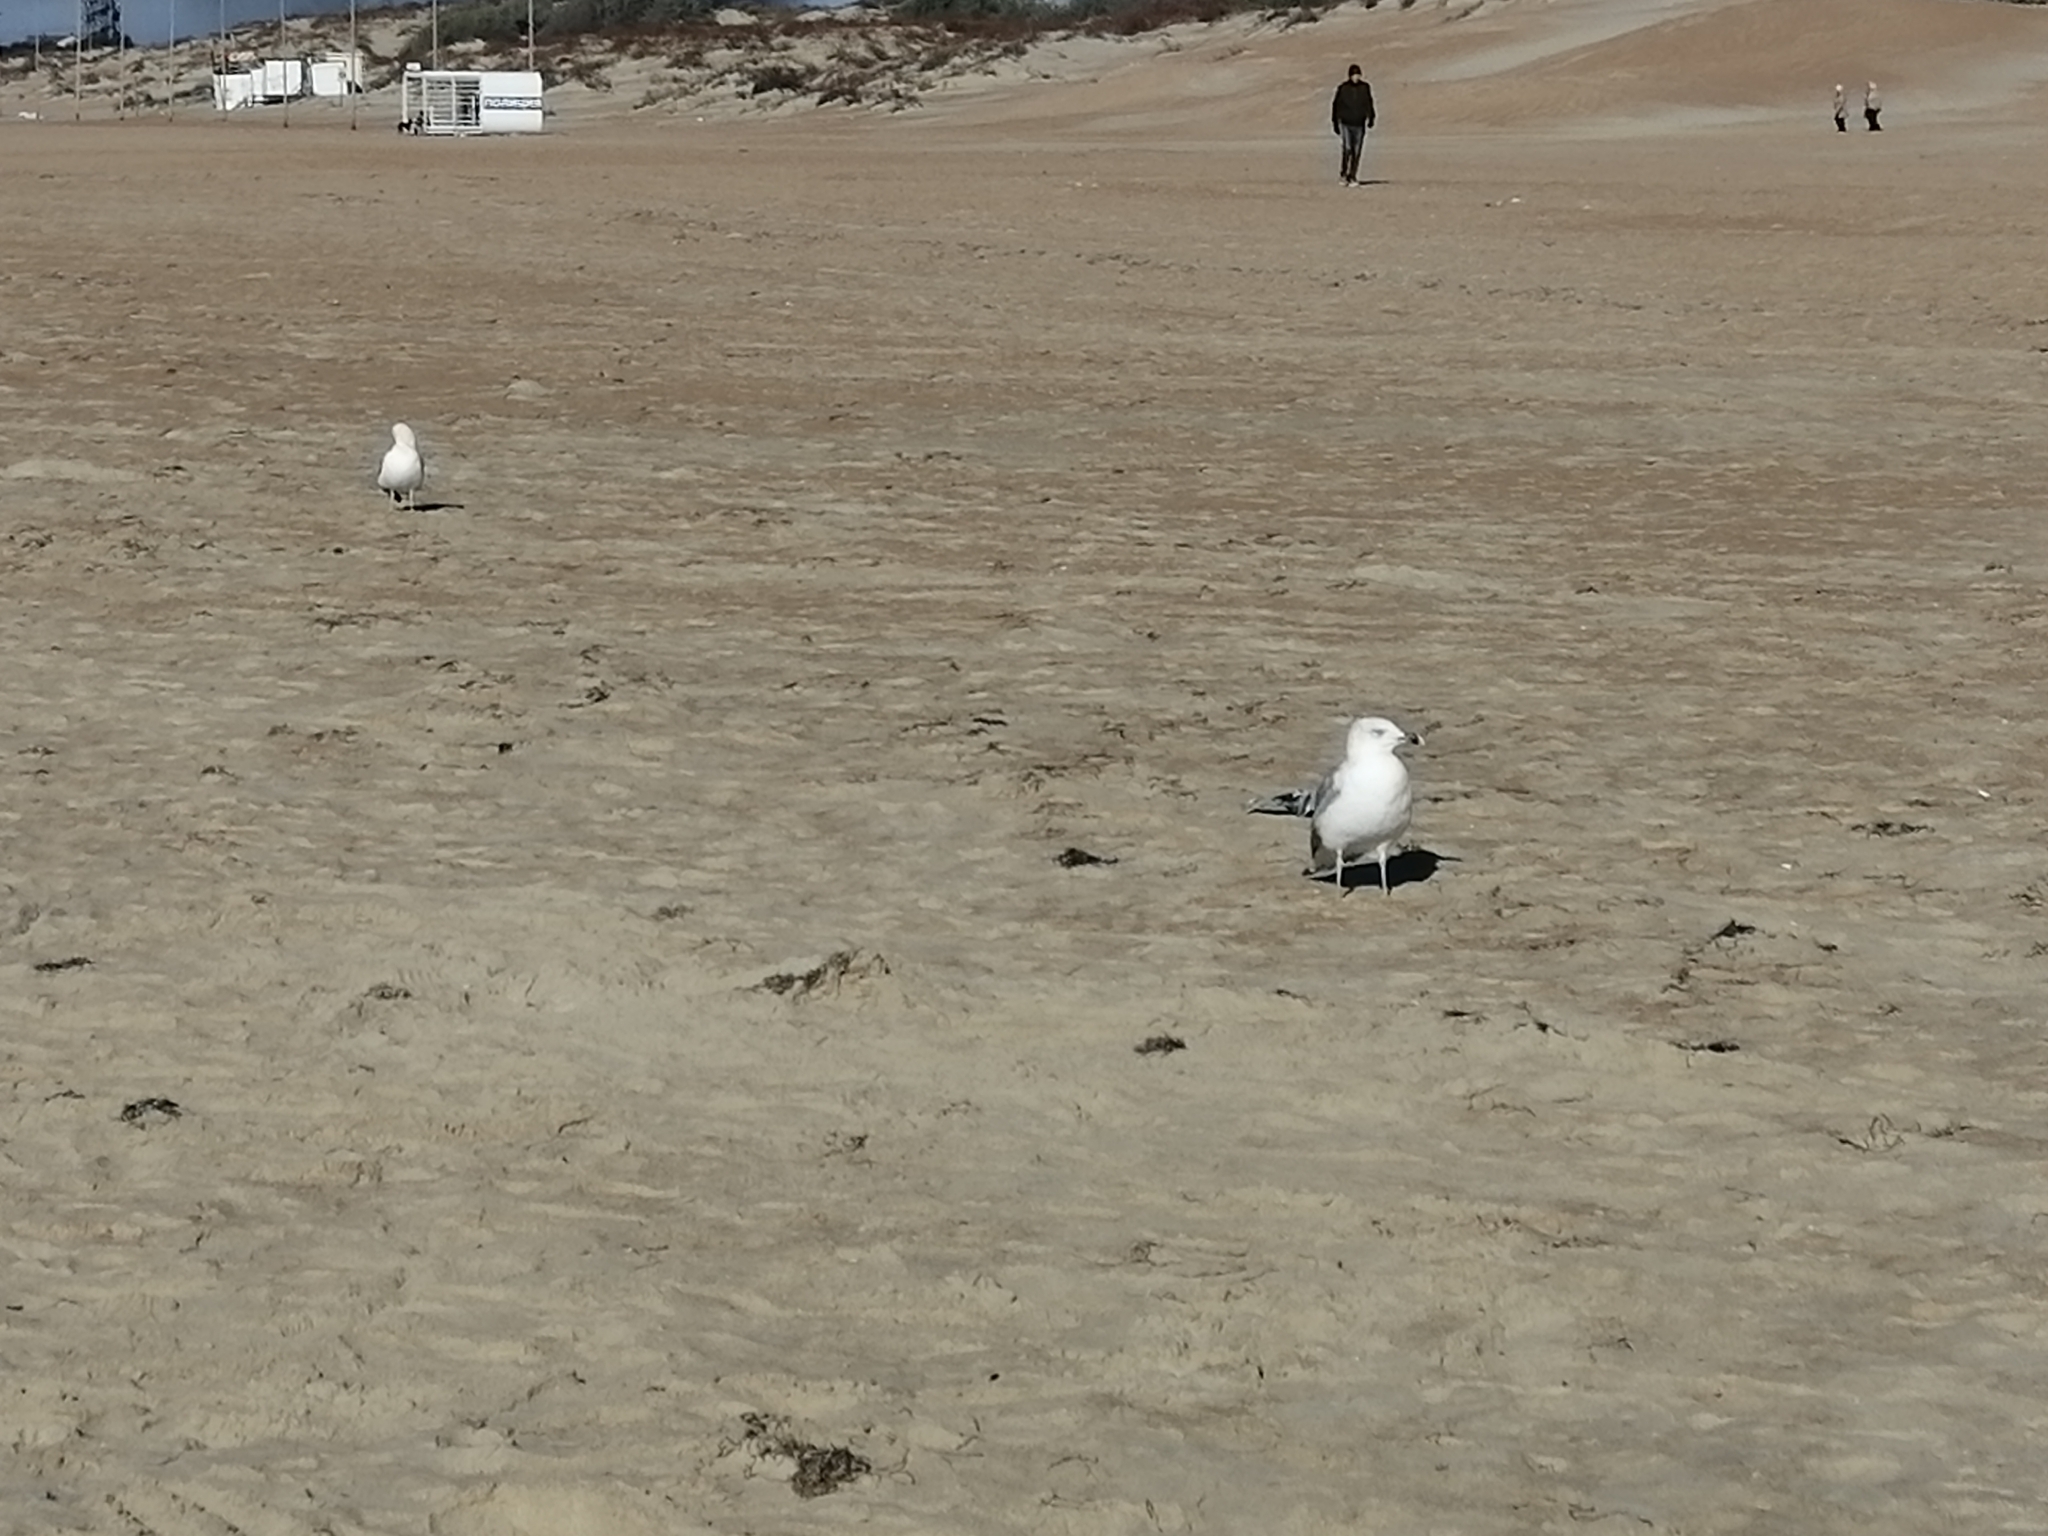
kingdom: Animalia
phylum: Chordata
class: Aves
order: Charadriiformes
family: Laridae
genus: Larus
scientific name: Larus michahellis
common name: Yellow-legged gull
